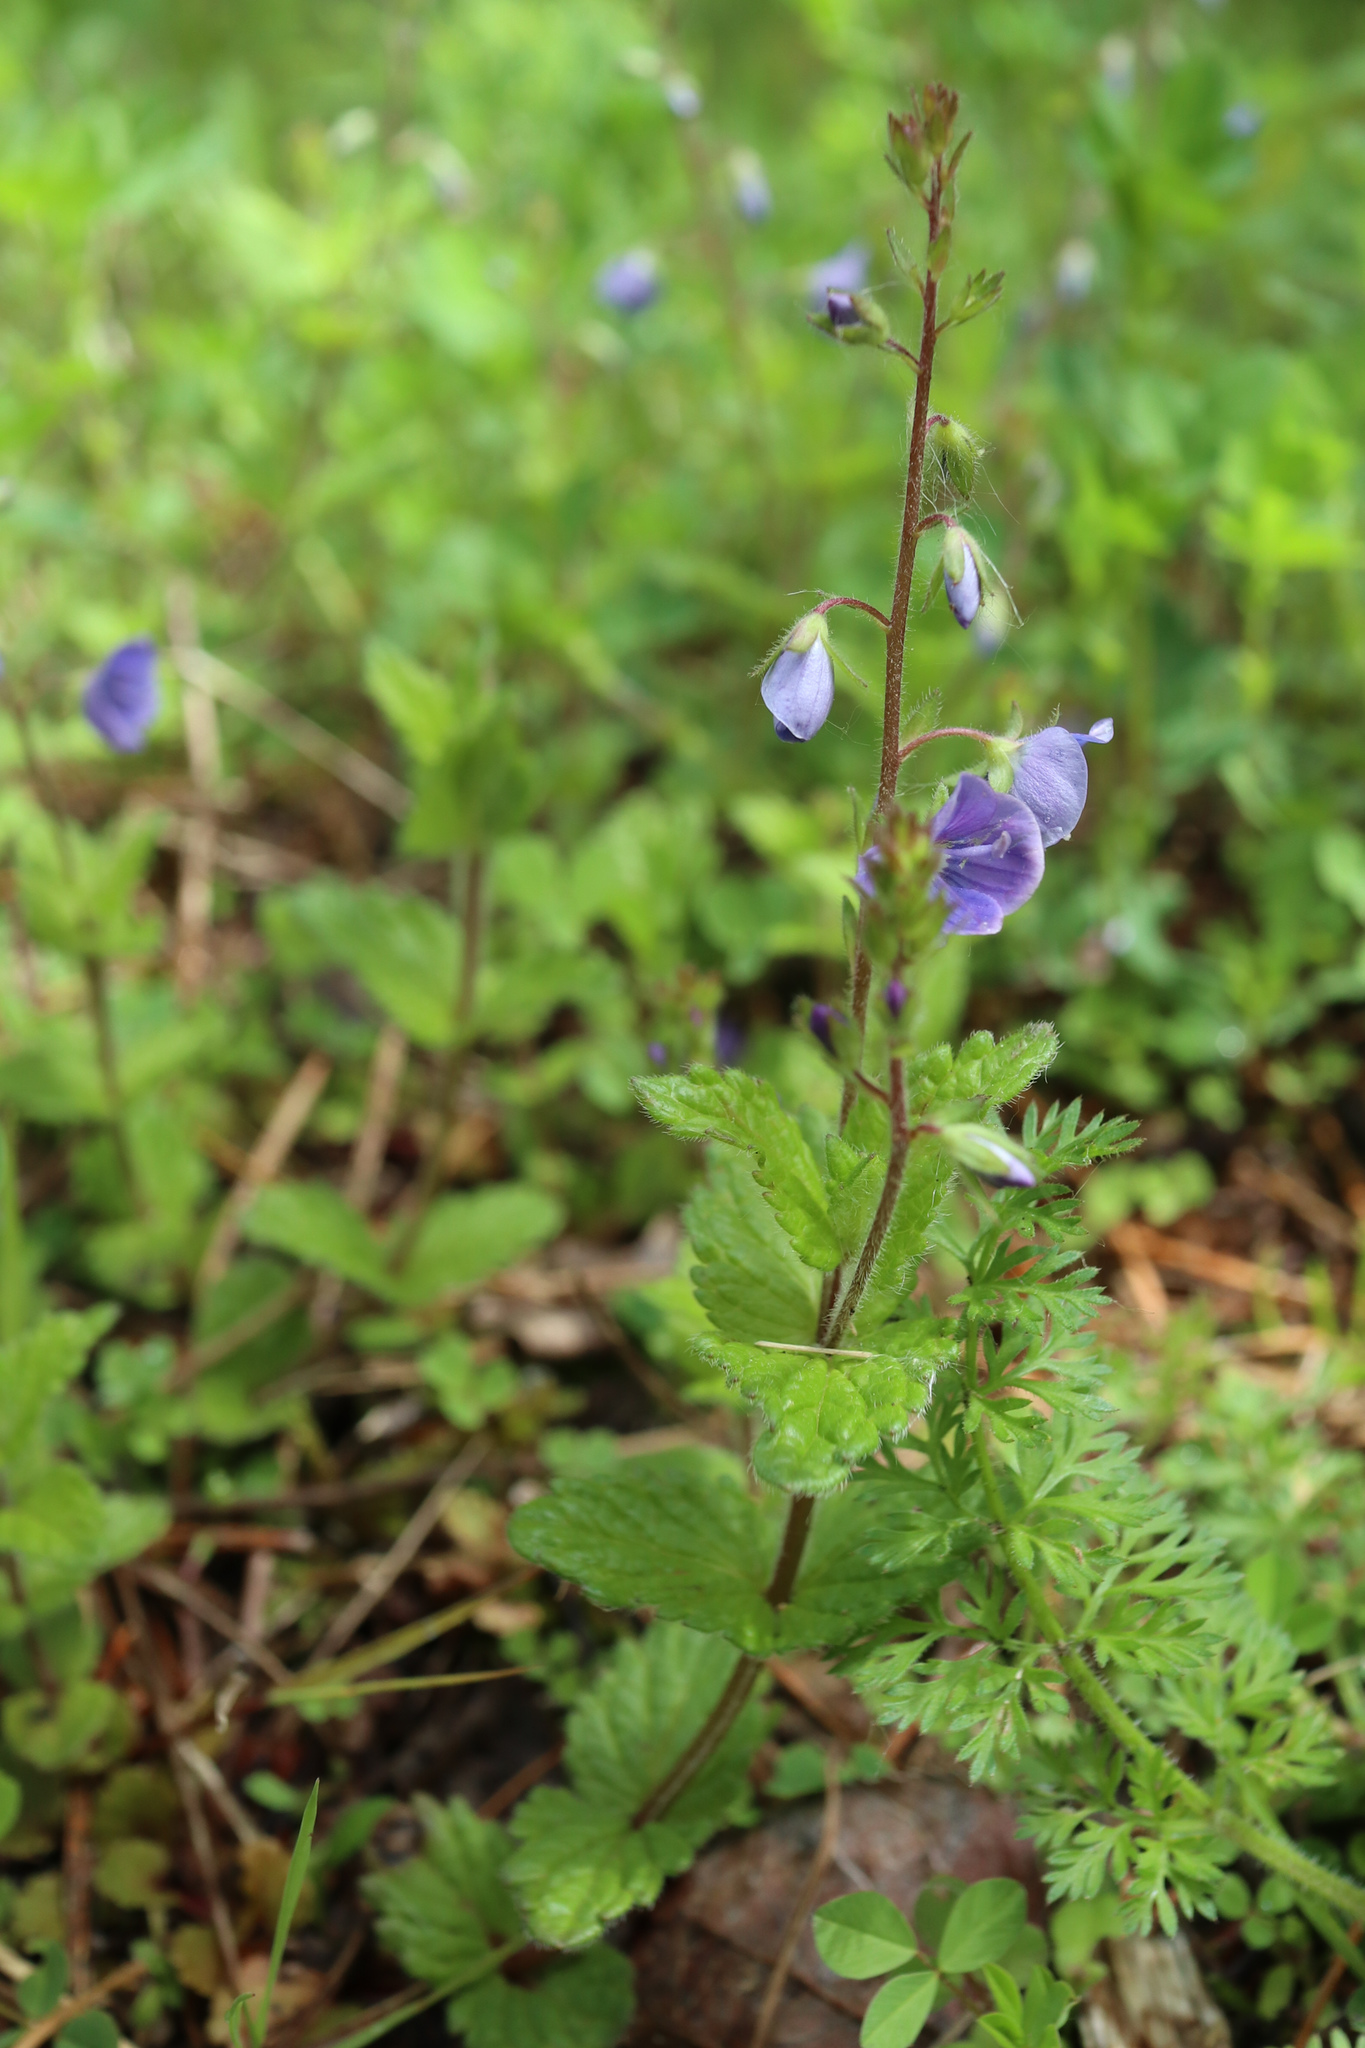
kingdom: Plantae
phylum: Tracheophyta
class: Magnoliopsida
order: Lamiales
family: Plantaginaceae
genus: Veronica
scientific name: Veronica chamaedrys
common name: Germander speedwell
